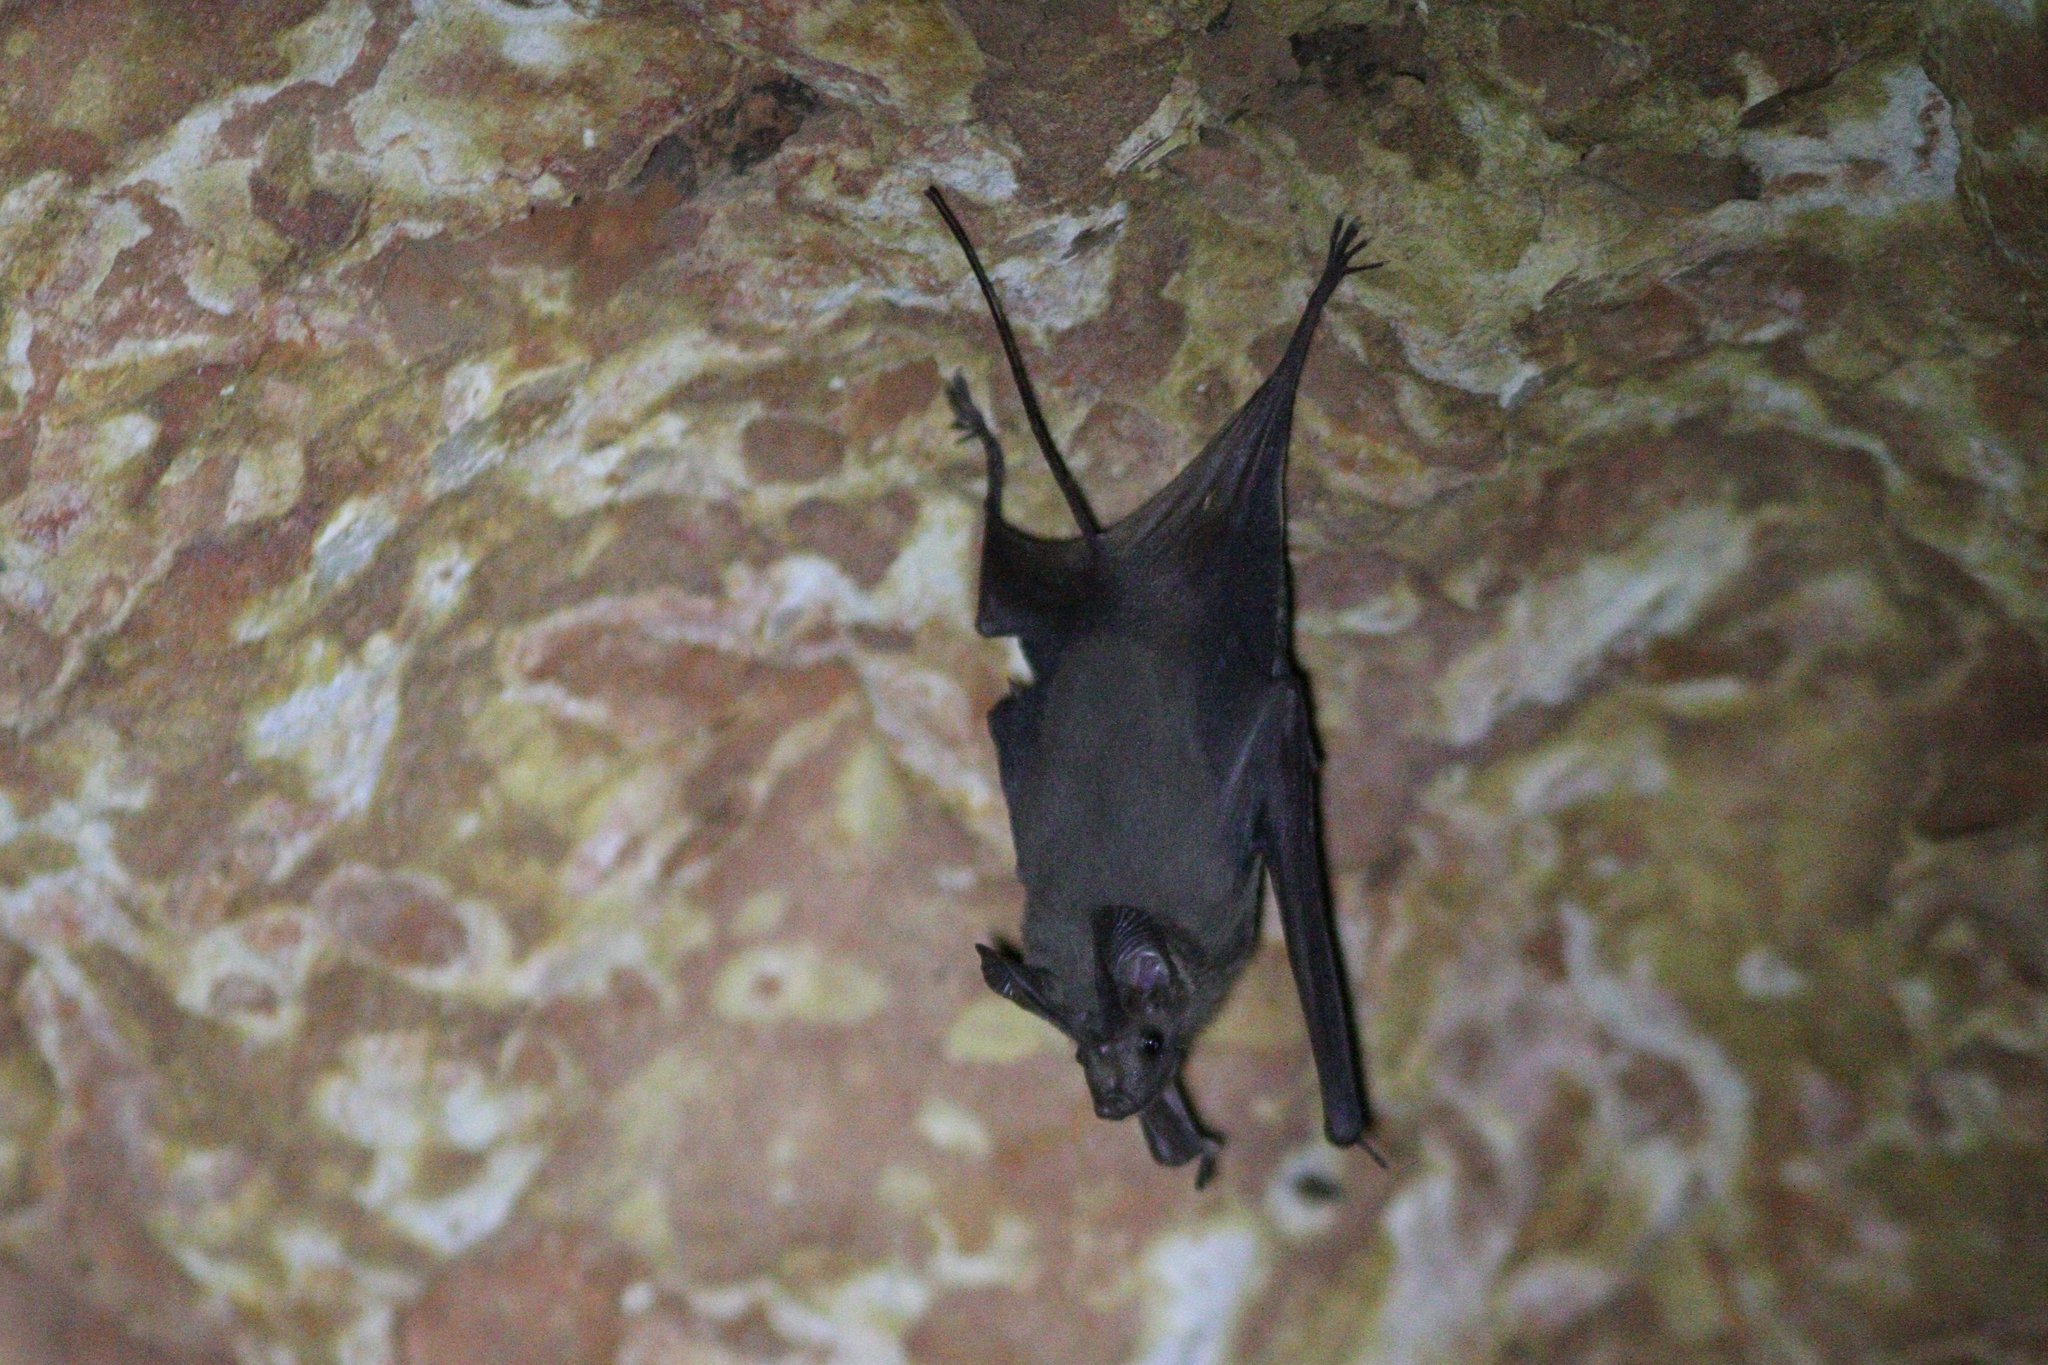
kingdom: Animalia
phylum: Chordata
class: Mammalia
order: Chiroptera
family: Rhinopomatidae
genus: Rhinopoma
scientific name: Rhinopoma cystops
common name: Arabian mouse-tailed bat
